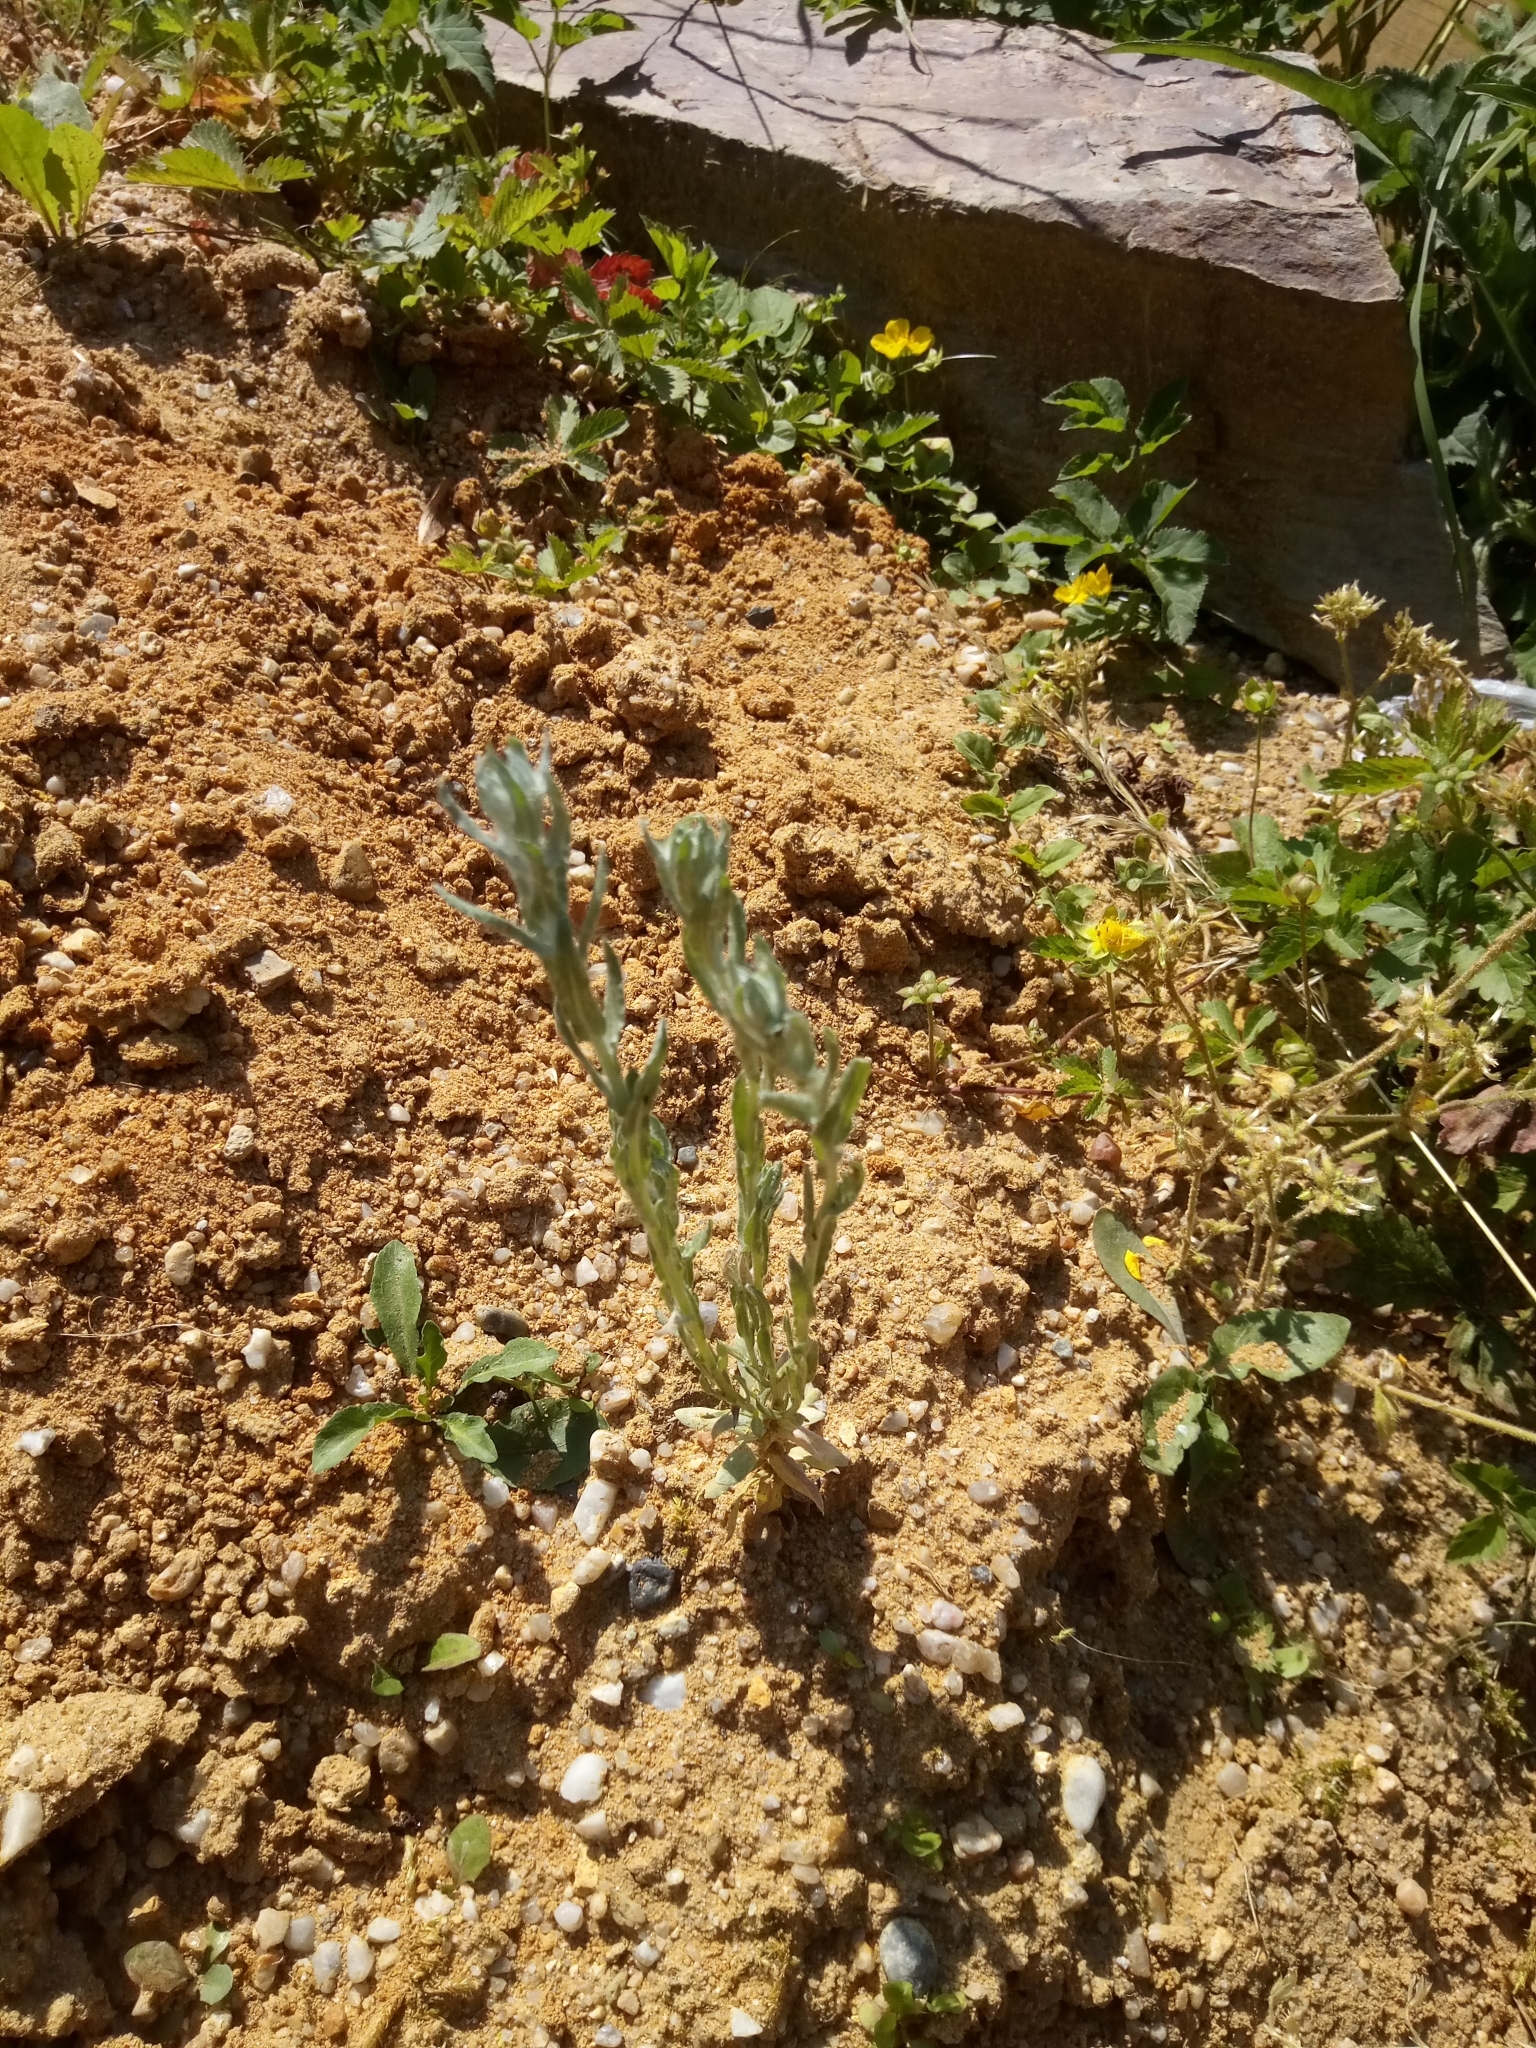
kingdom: Plantae
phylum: Tracheophyta
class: Magnoliopsida
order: Asterales
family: Asteraceae
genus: Filago
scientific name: Filago arvensis
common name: Field cudweed
